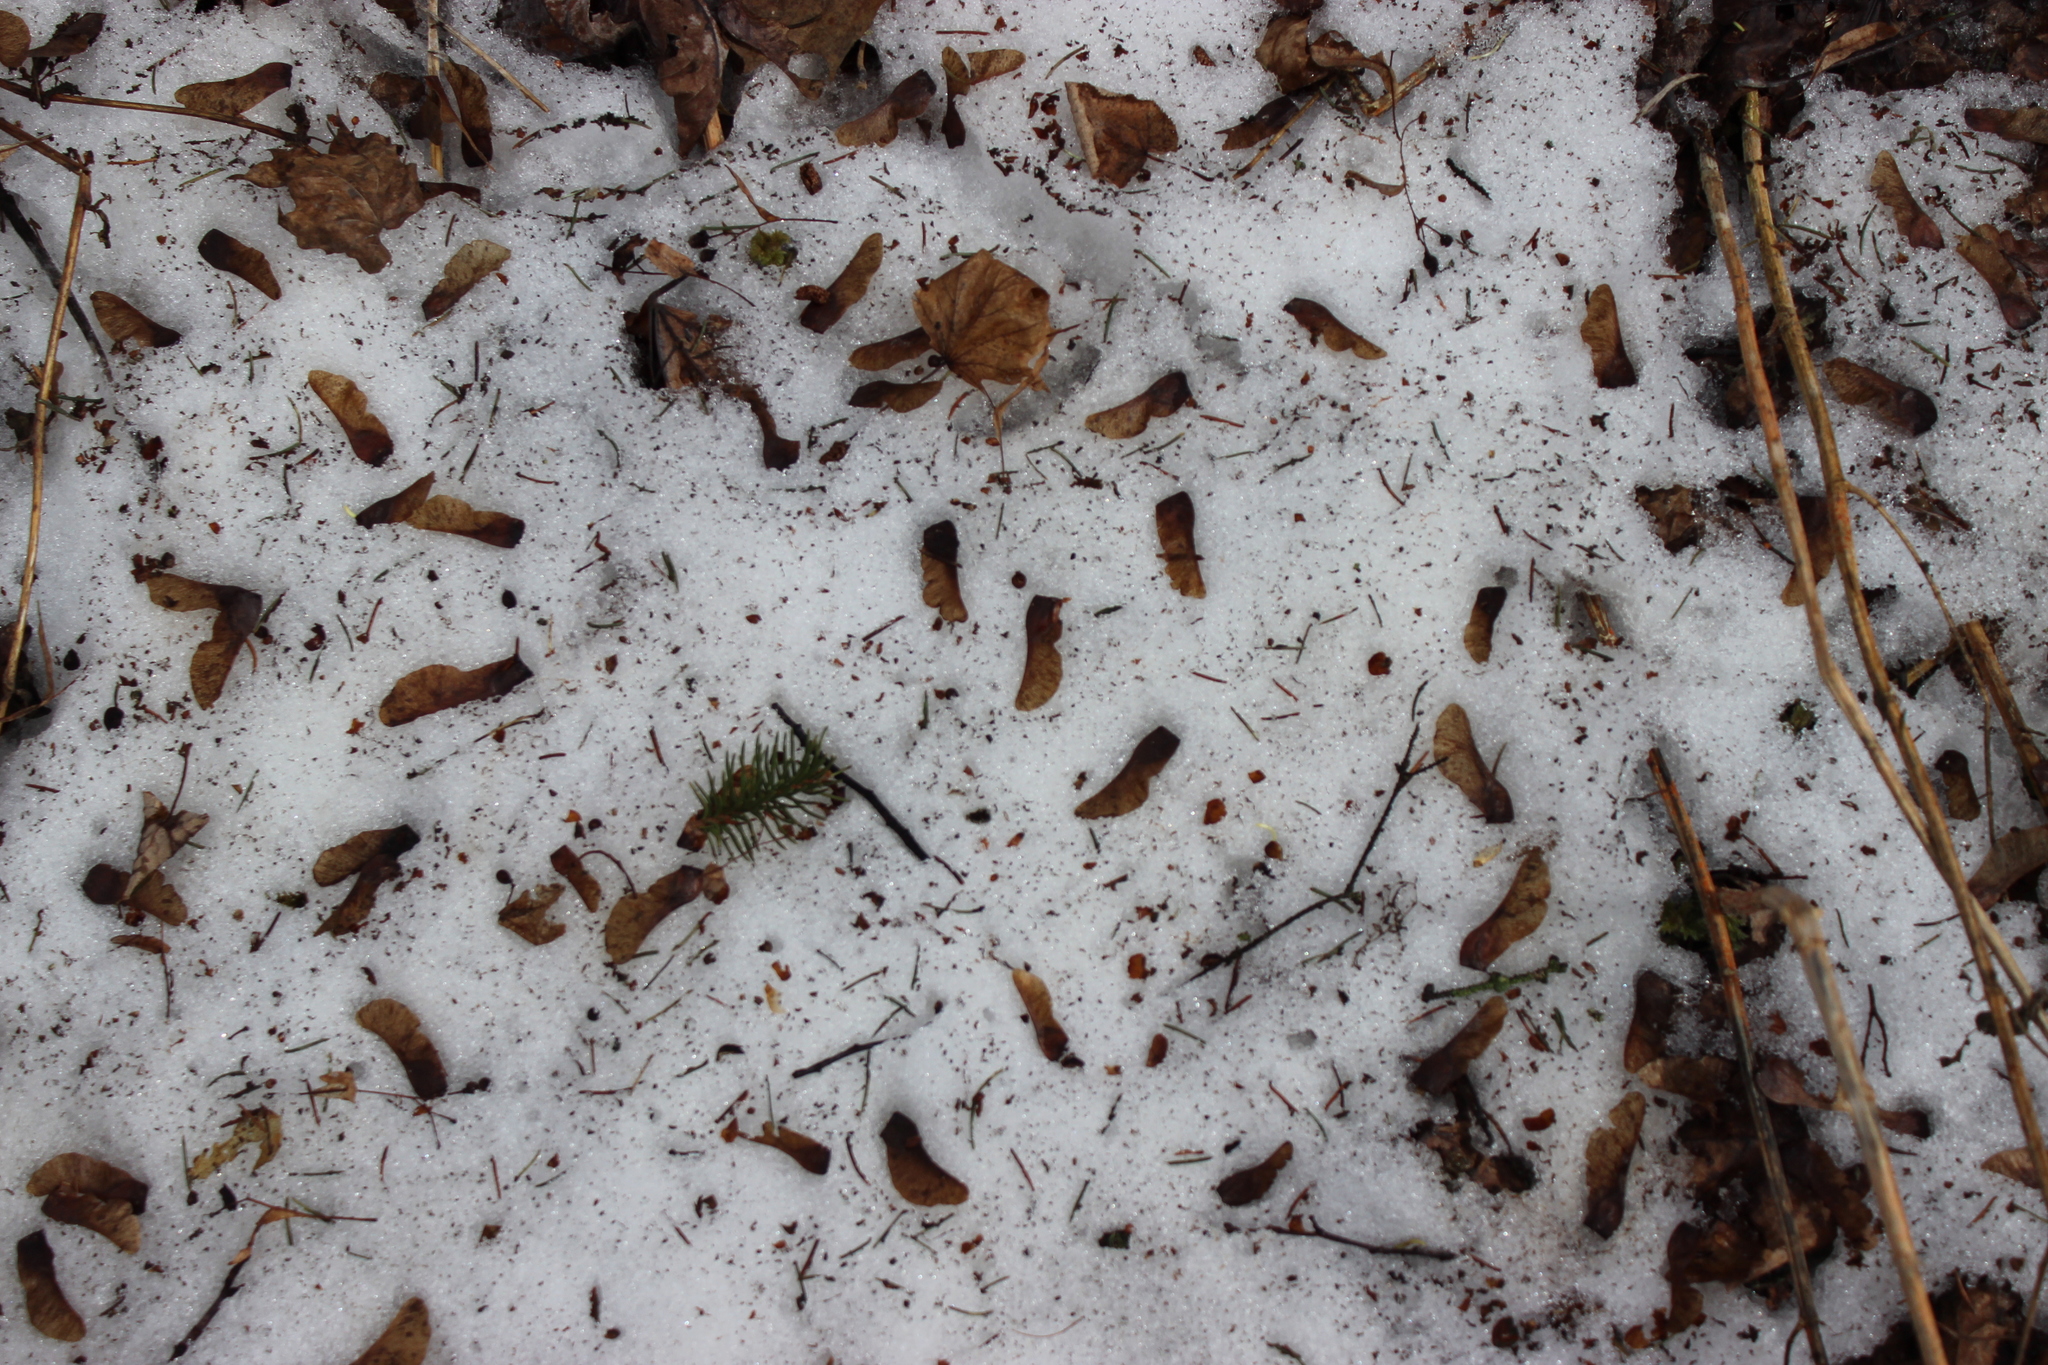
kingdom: Plantae
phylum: Tracheophyta
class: Magnoliopsida
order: Sapindales
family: Sapindaceae
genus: Acer
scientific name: Acer platanoides
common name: Norway maple
